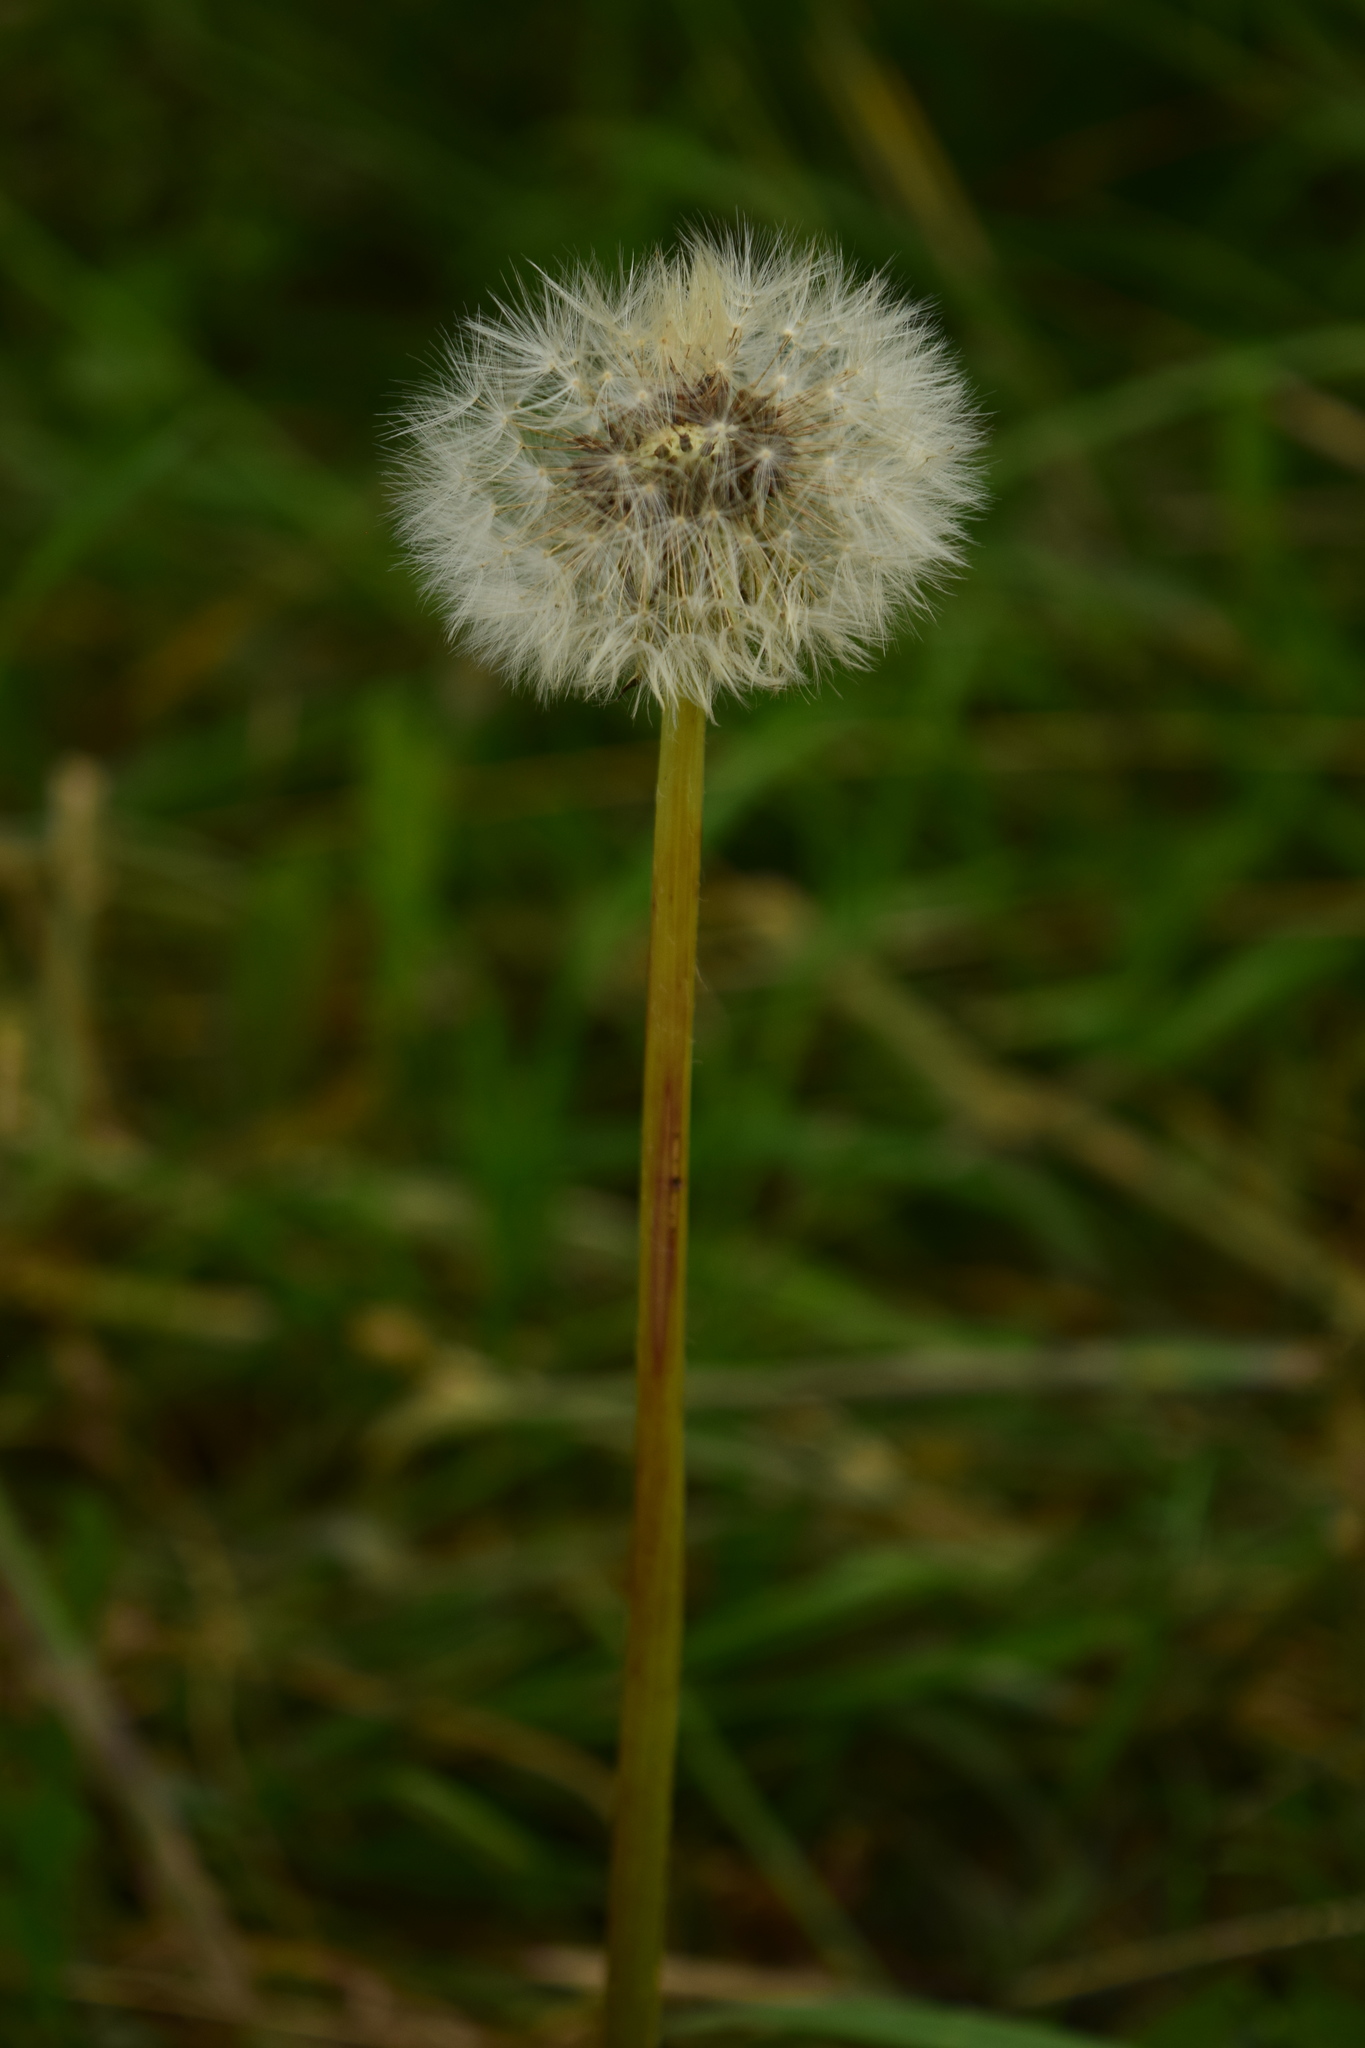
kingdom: Plantae
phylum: Tracheophyta
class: Magnoliopsida
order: Asterales
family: Asteraceae
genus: Taraxacum
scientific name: Taraxacum officinale
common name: Common dandelion
